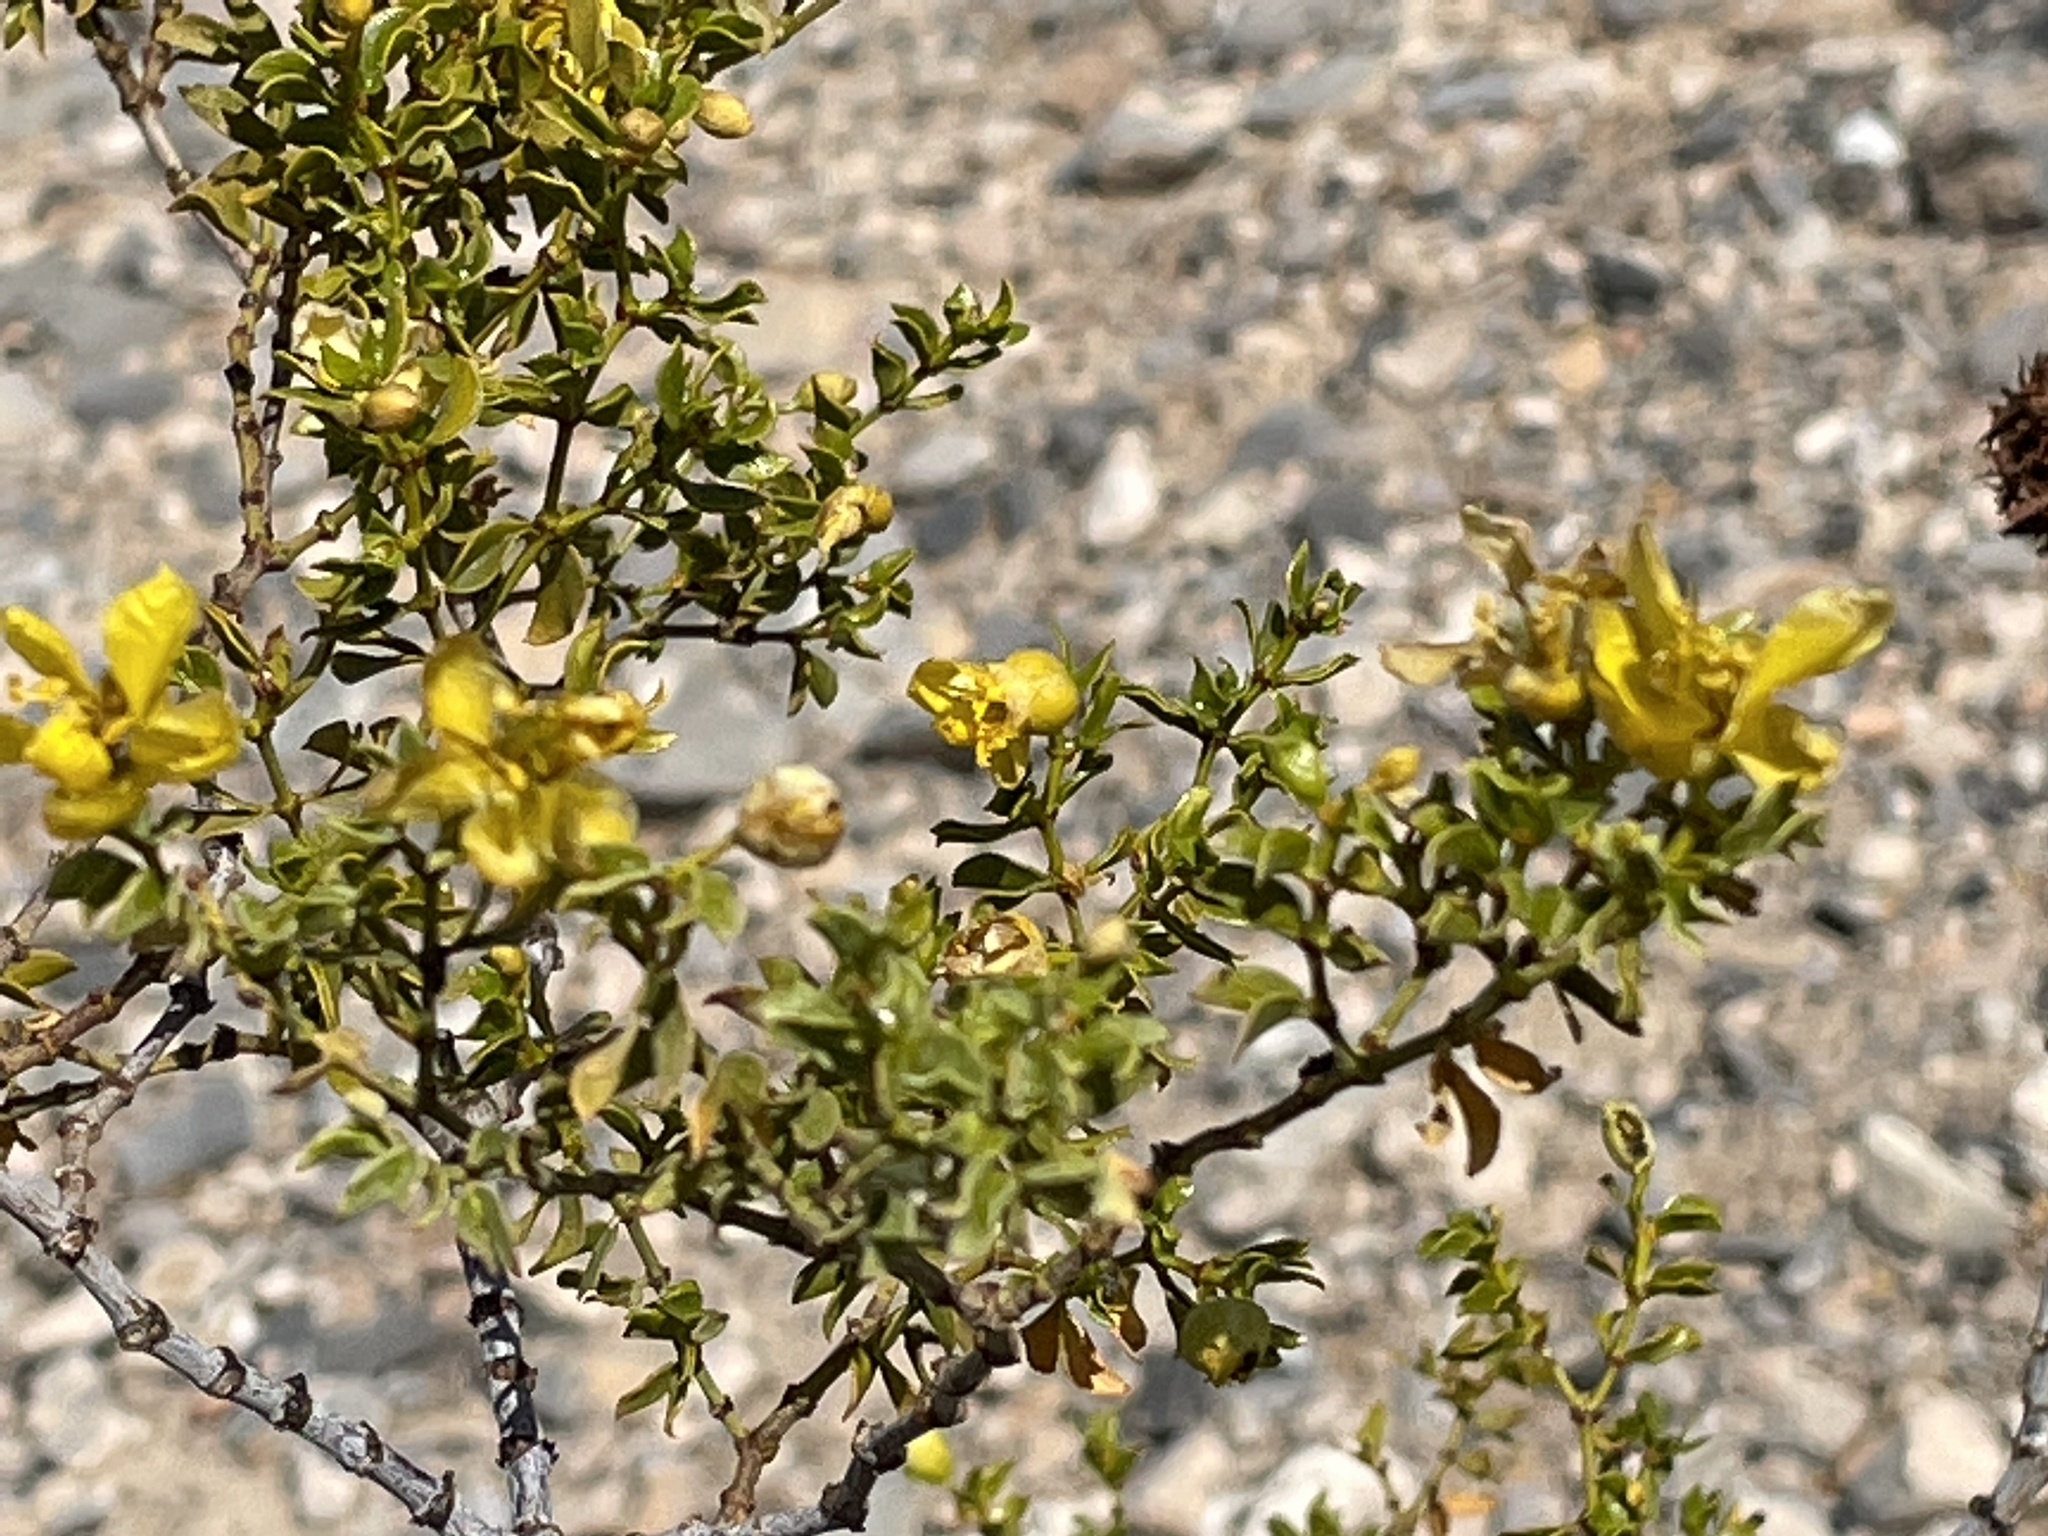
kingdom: Plantae
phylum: Tracheophyta
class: Magnoliopsida
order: Zygophyllales
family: Zygophyllaceae
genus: Larrea
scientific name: Larrea tridentata
